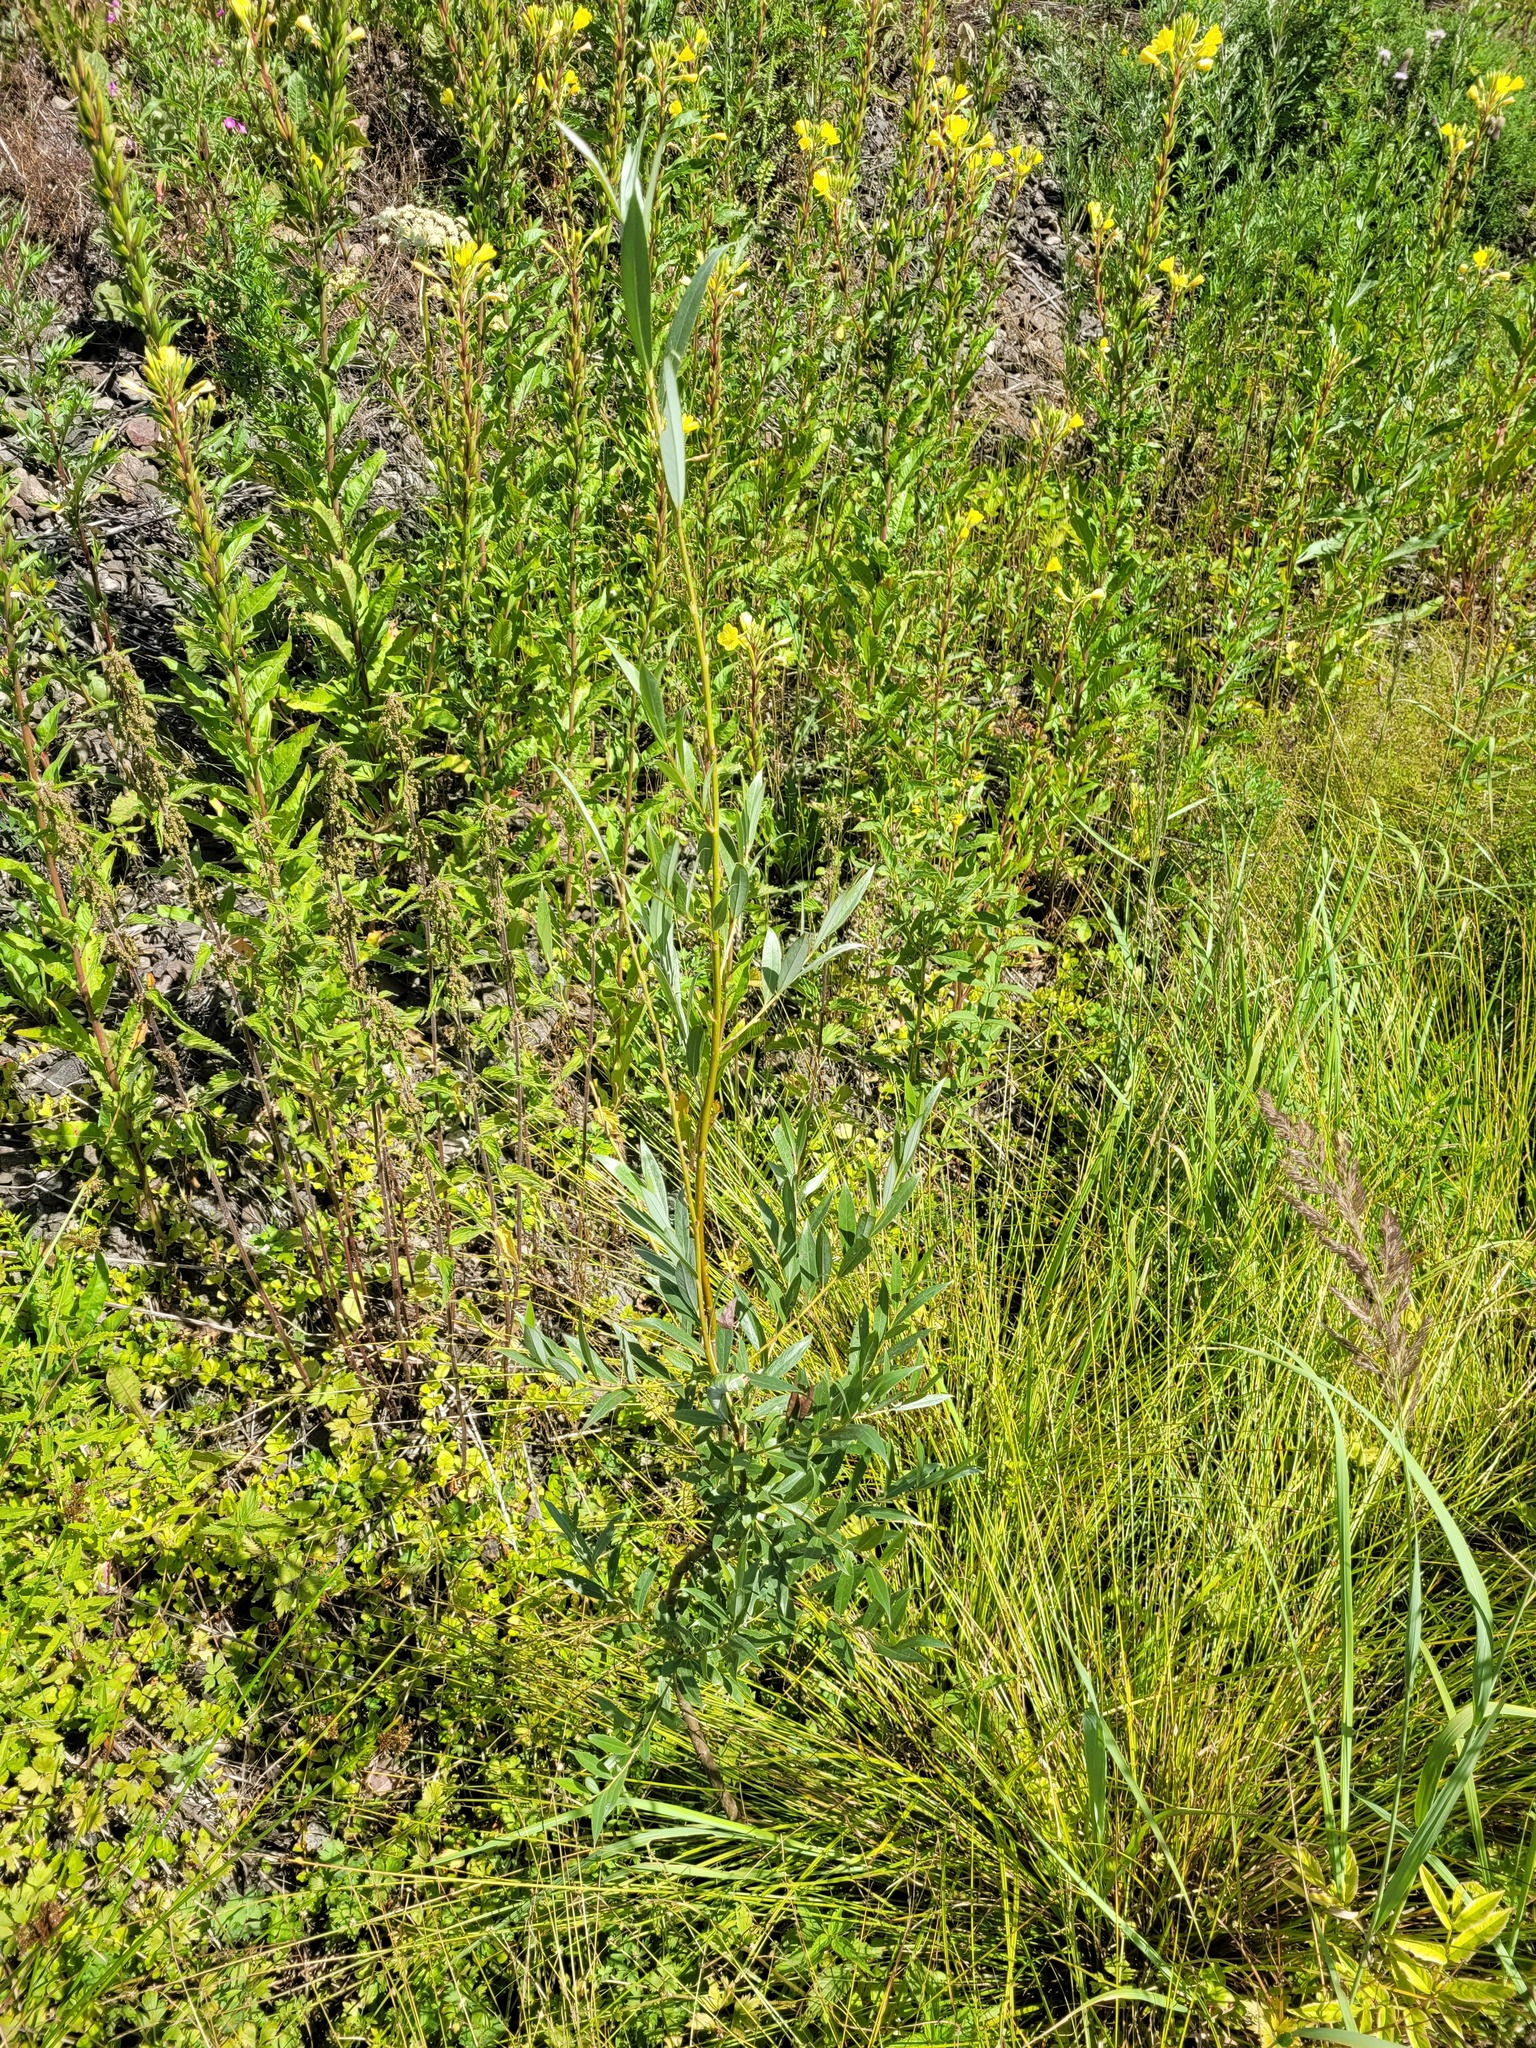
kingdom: Plantae
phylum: Tracheophyta
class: Magnoliopsida
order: Malpighiales
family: Salicaceae
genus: Salix
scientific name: Salix alba
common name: White willow
